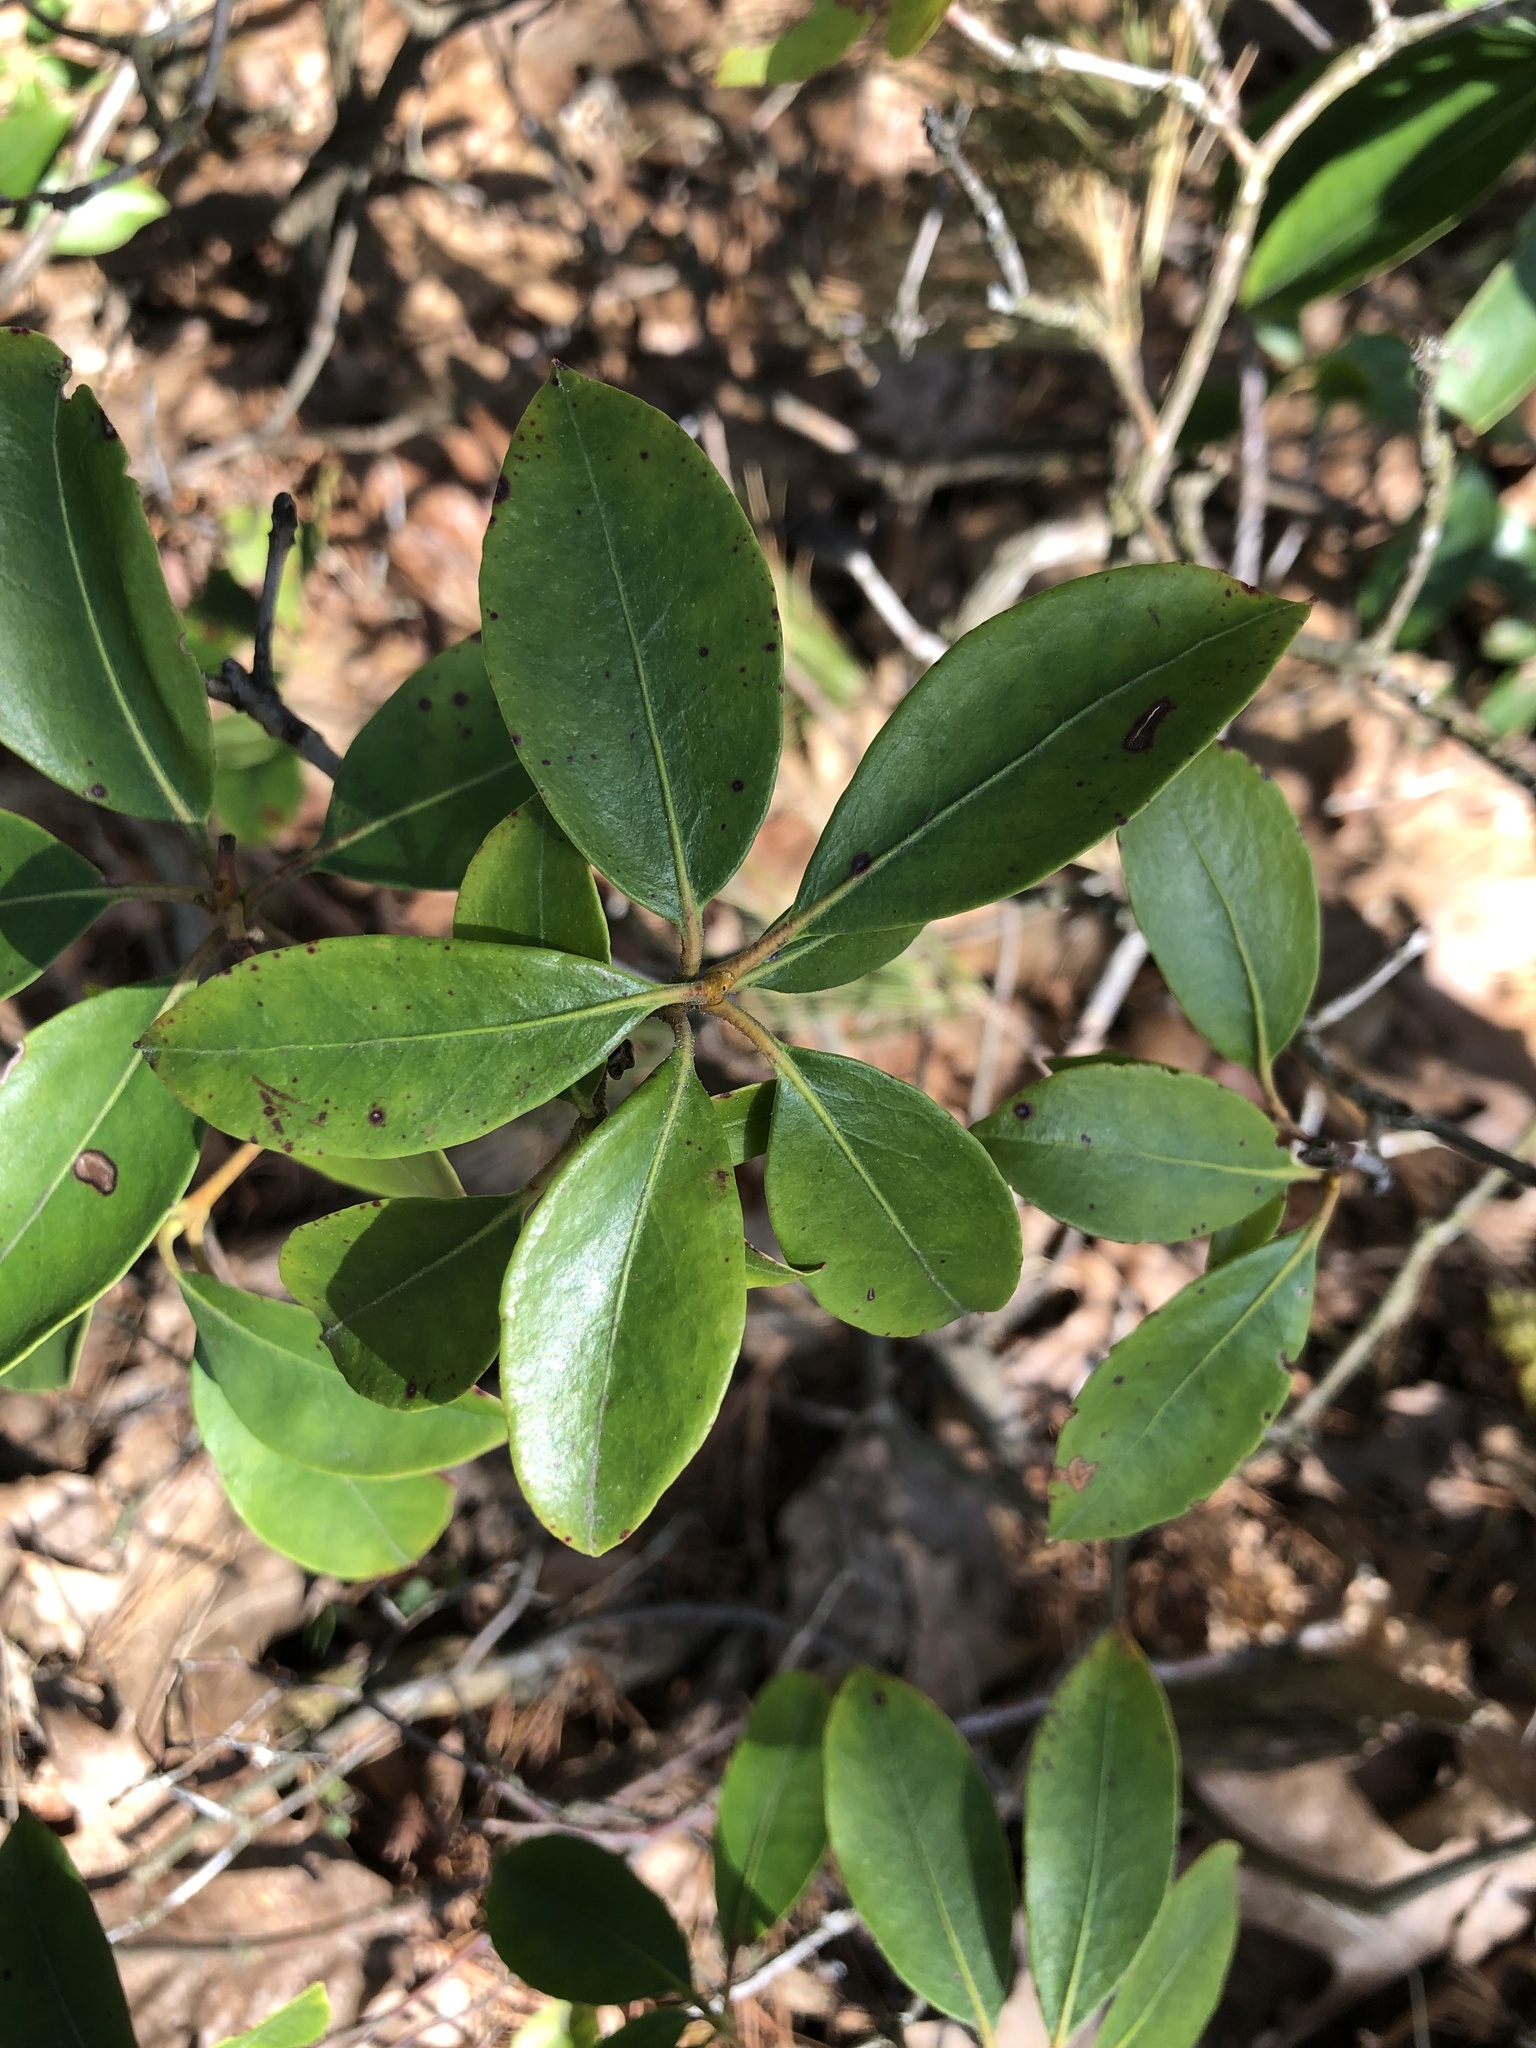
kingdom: Plantae
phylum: Tracheophyta
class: Magnoliopsida
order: Ericales
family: Ericaceae
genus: Kalmia
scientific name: Kalmia latifolia
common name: Mountain-laurel
